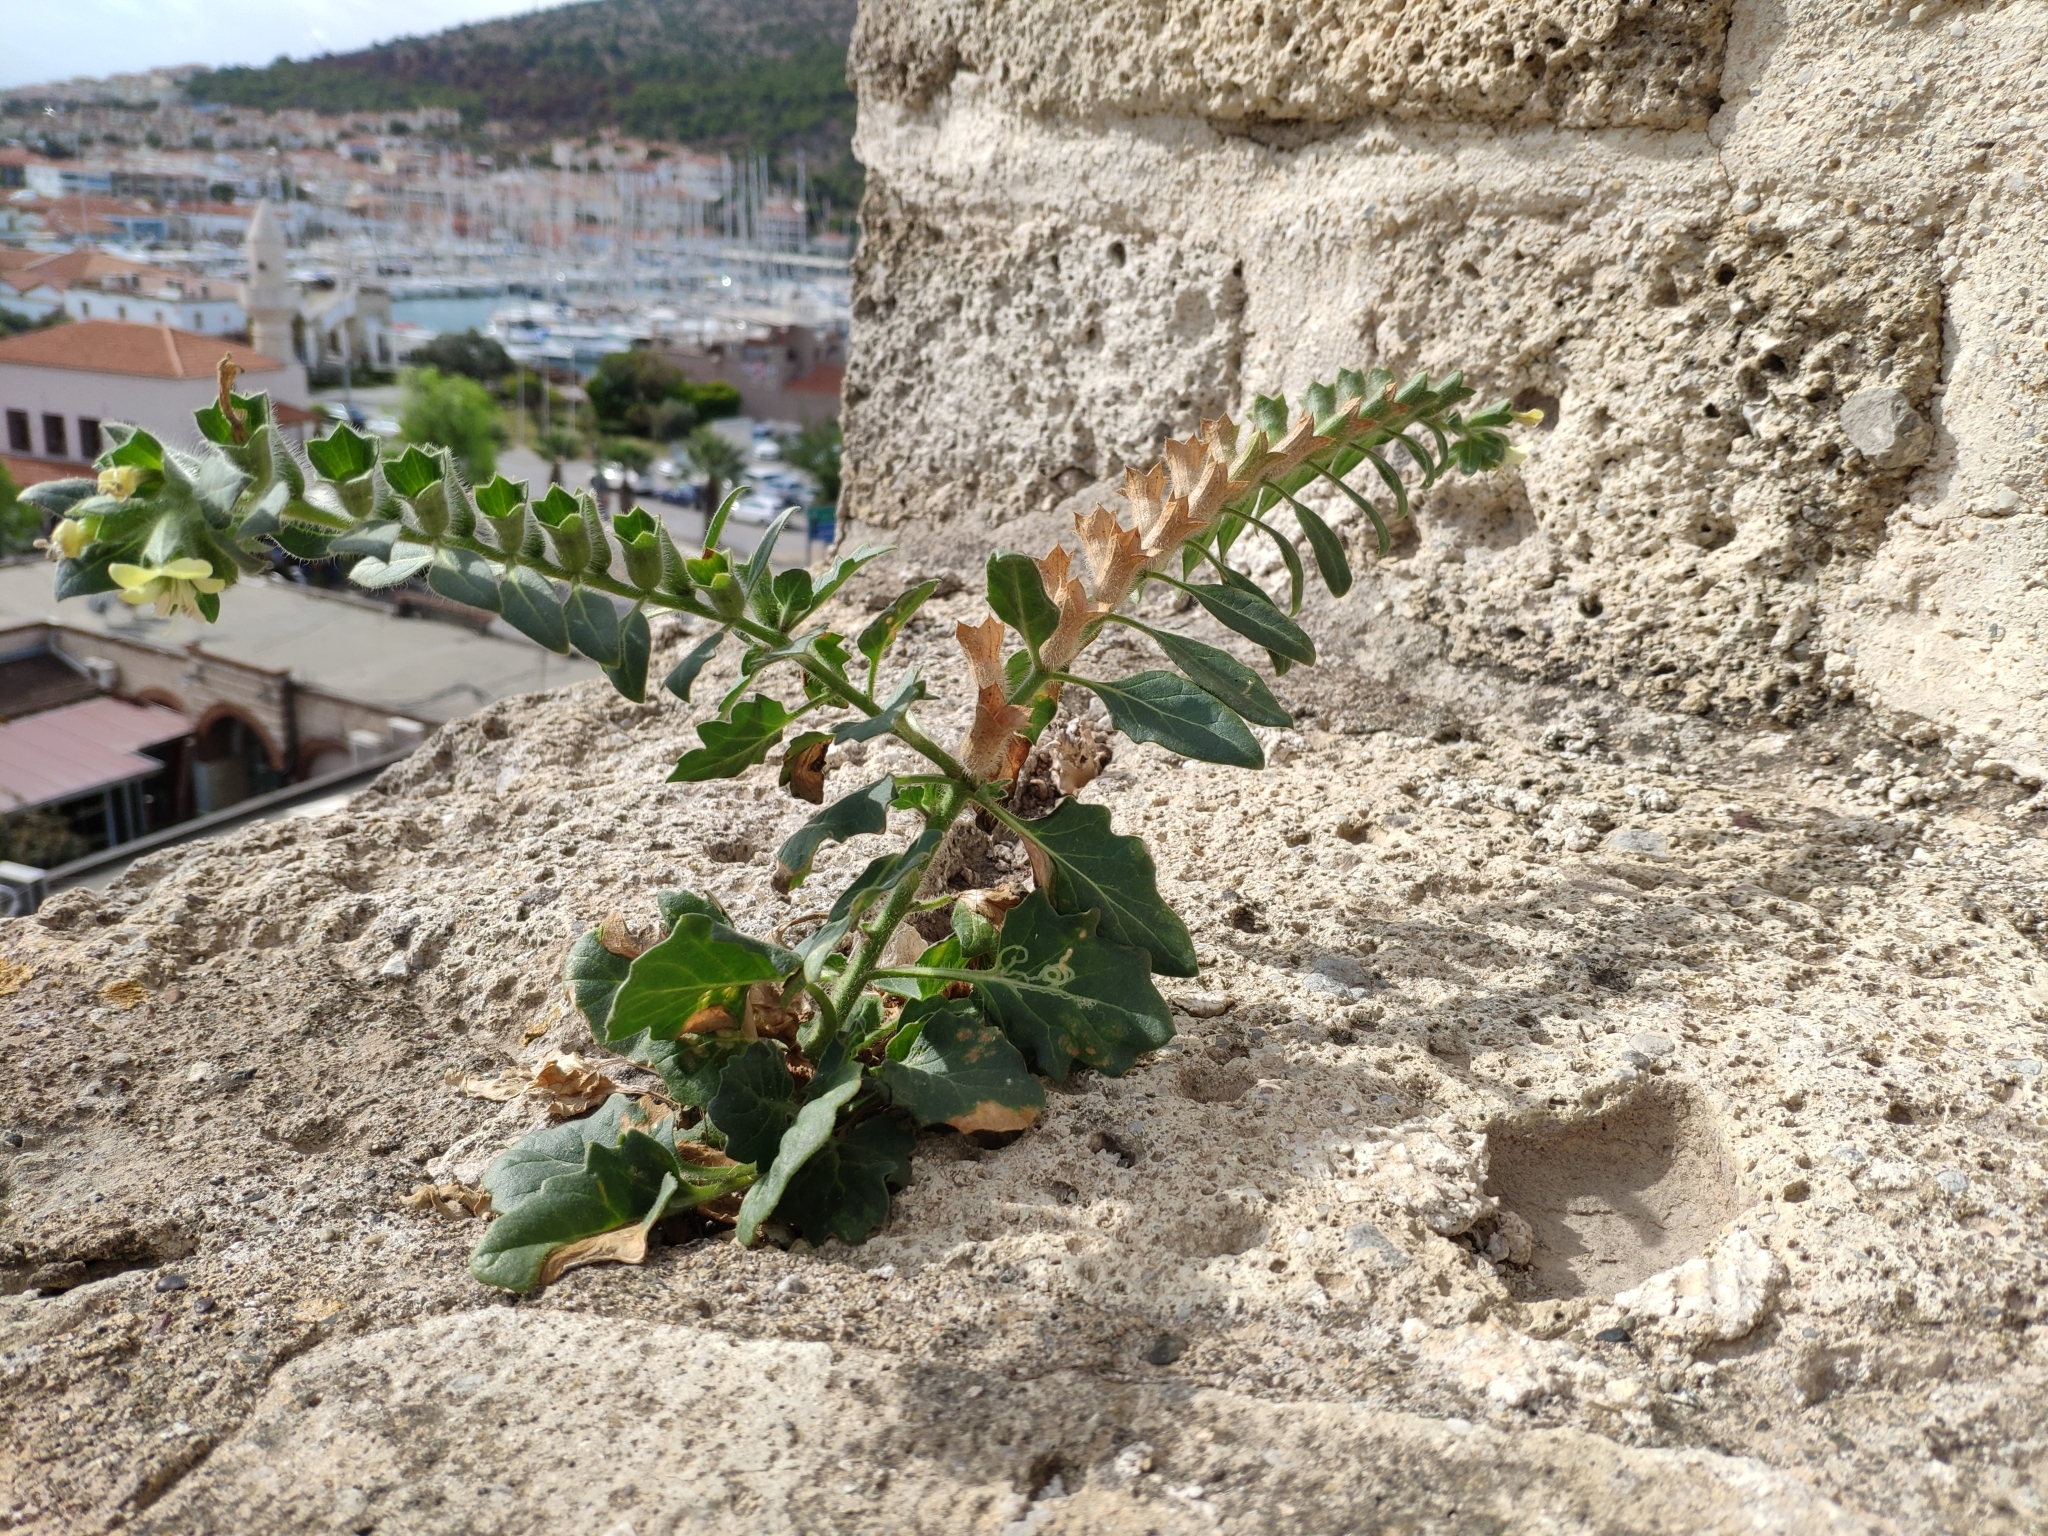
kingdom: Plantae
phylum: Tracheophyta
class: Magnoliopsida
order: Solanales
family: Solanaceae
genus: Hyoscyamus
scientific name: Hyoscyamus albus
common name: White henbane
